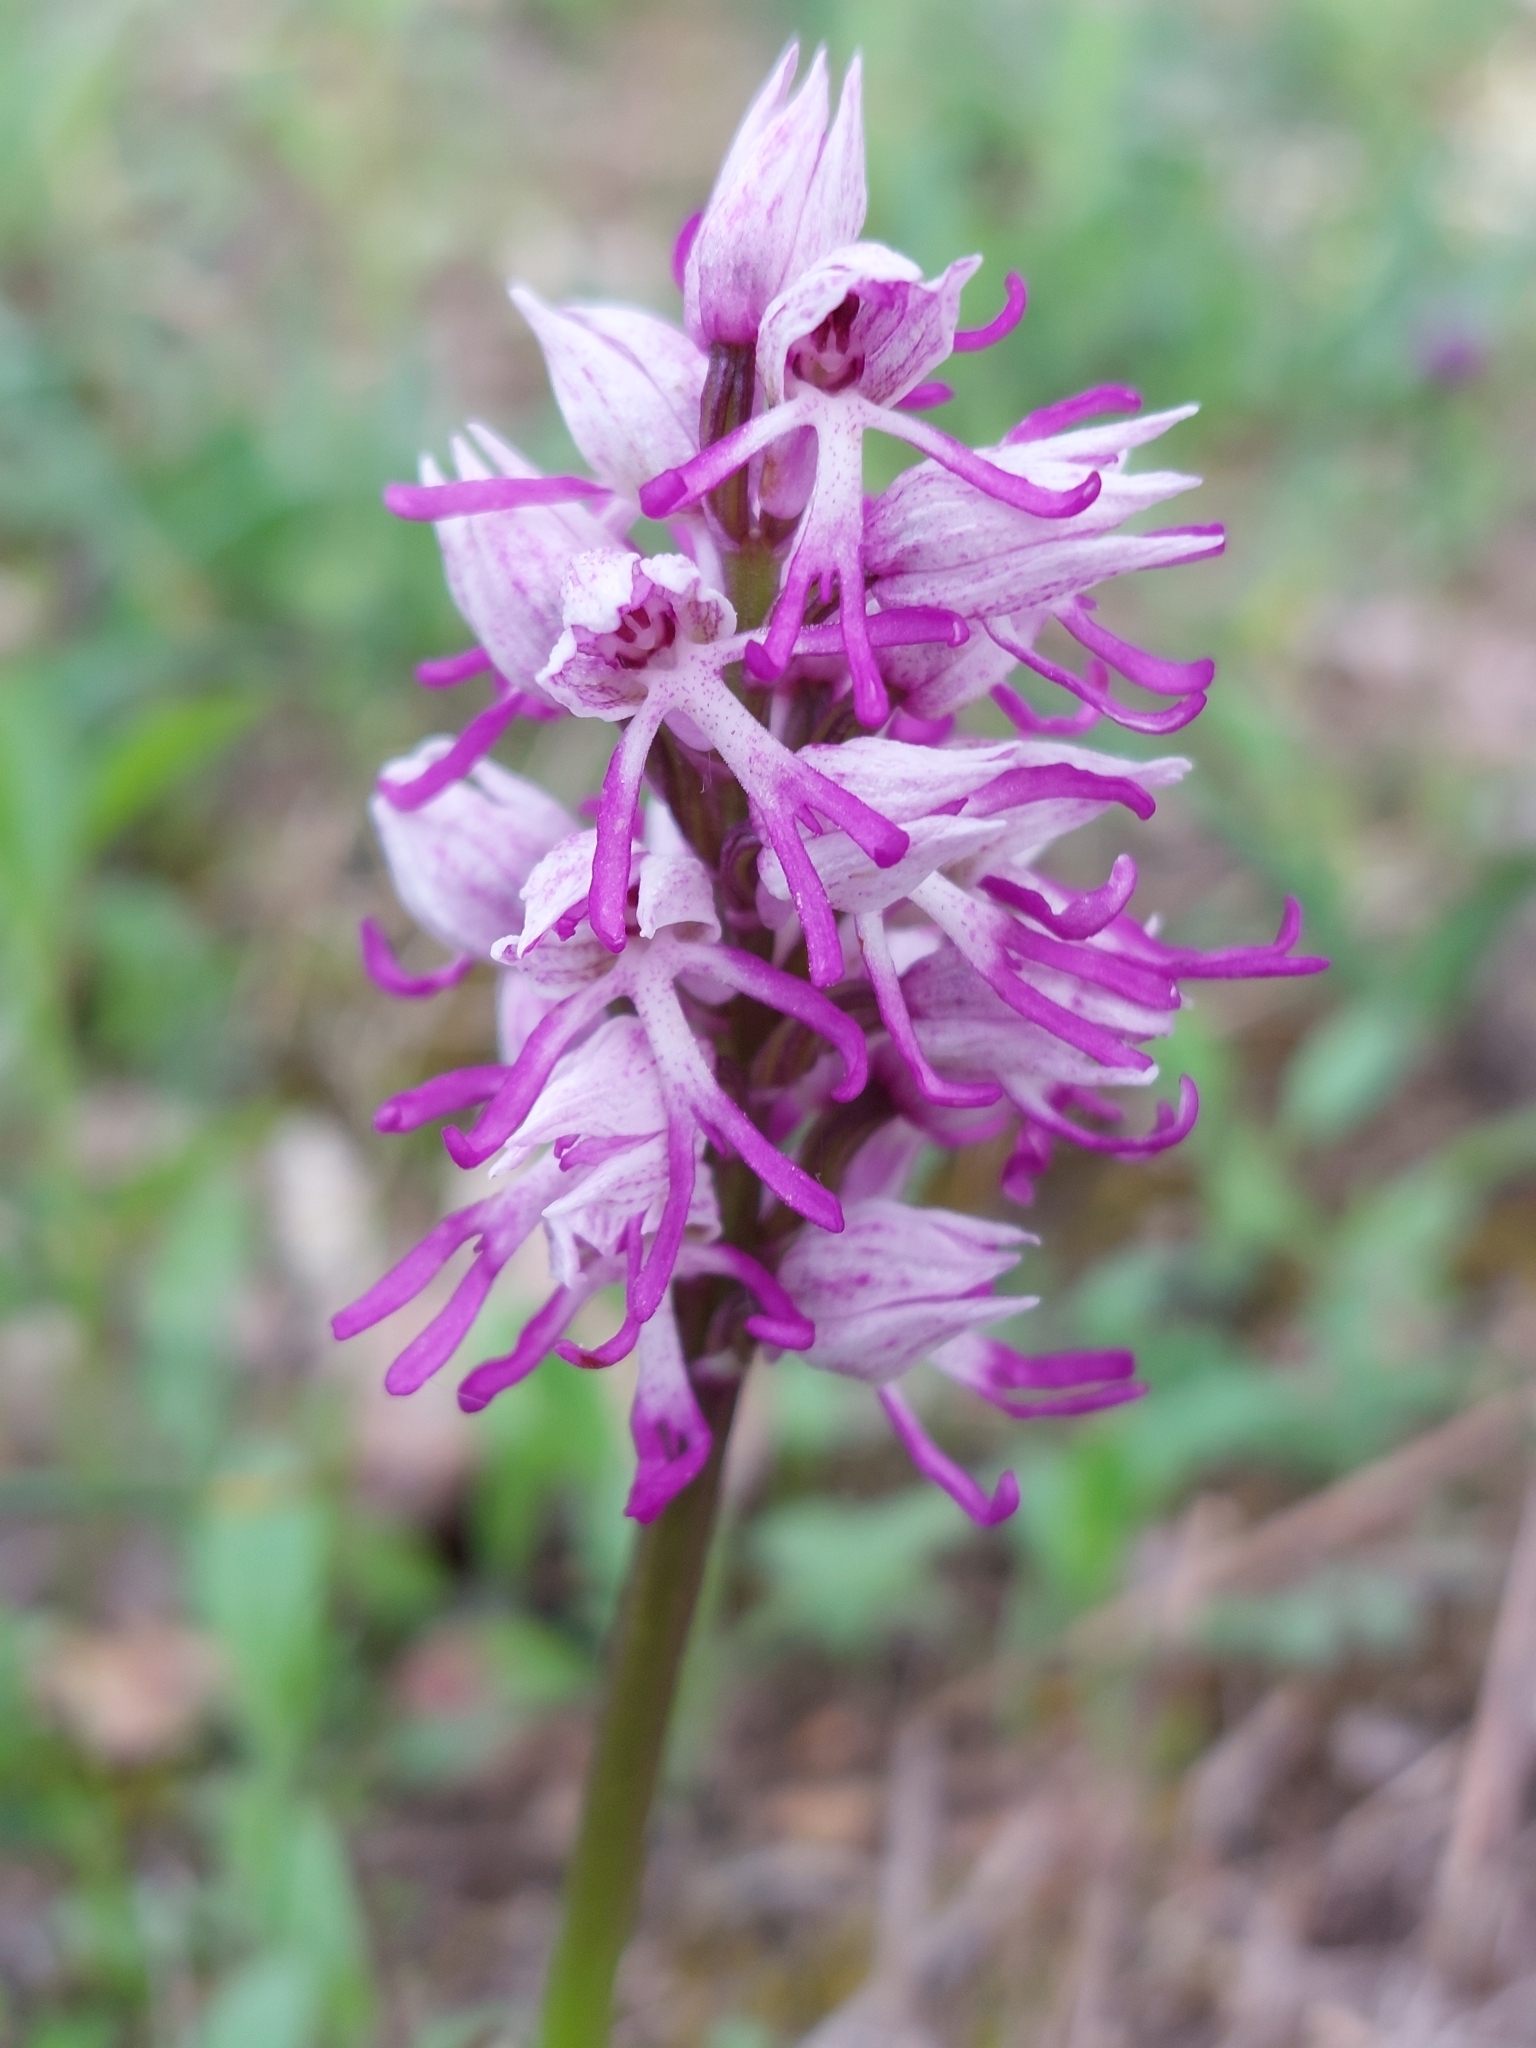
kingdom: Plantae
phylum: Tracheophyta
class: Liliopsida
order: Asparagales
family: Orchidaceae
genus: Orchis
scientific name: Orchis simia
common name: Monkey orchid
